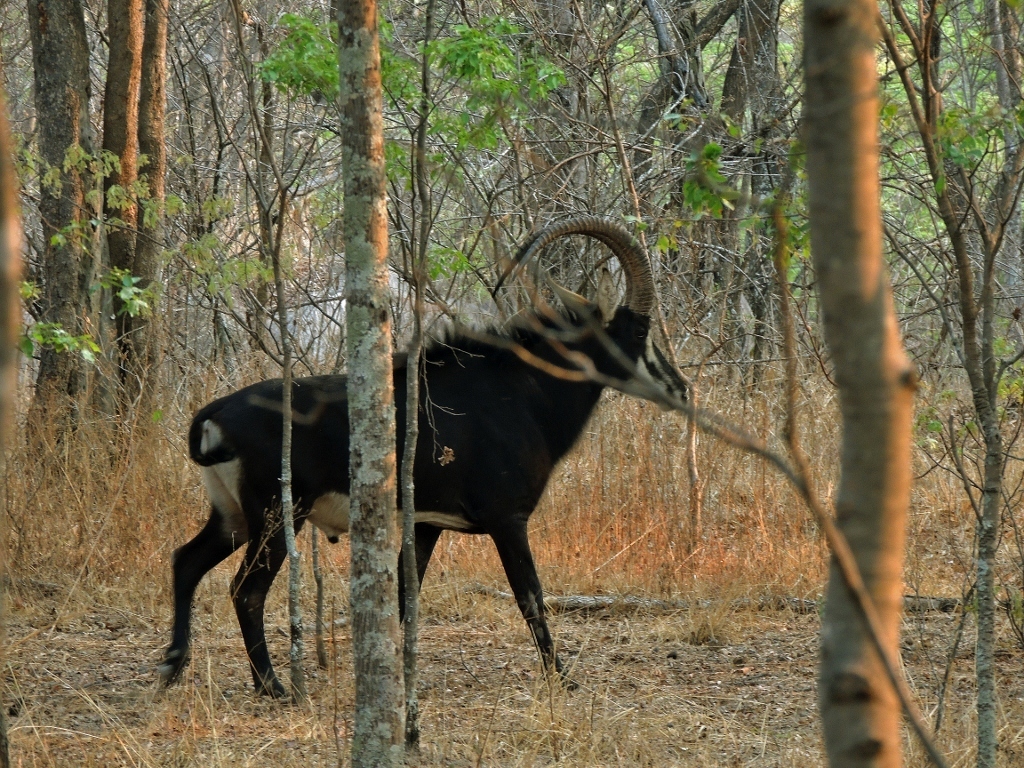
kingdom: Animalia
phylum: Chordata
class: Mammalia
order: Artiodactyla
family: Bovidae
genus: Hippotragus
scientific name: Hippotragus niger
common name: Sable antelope
